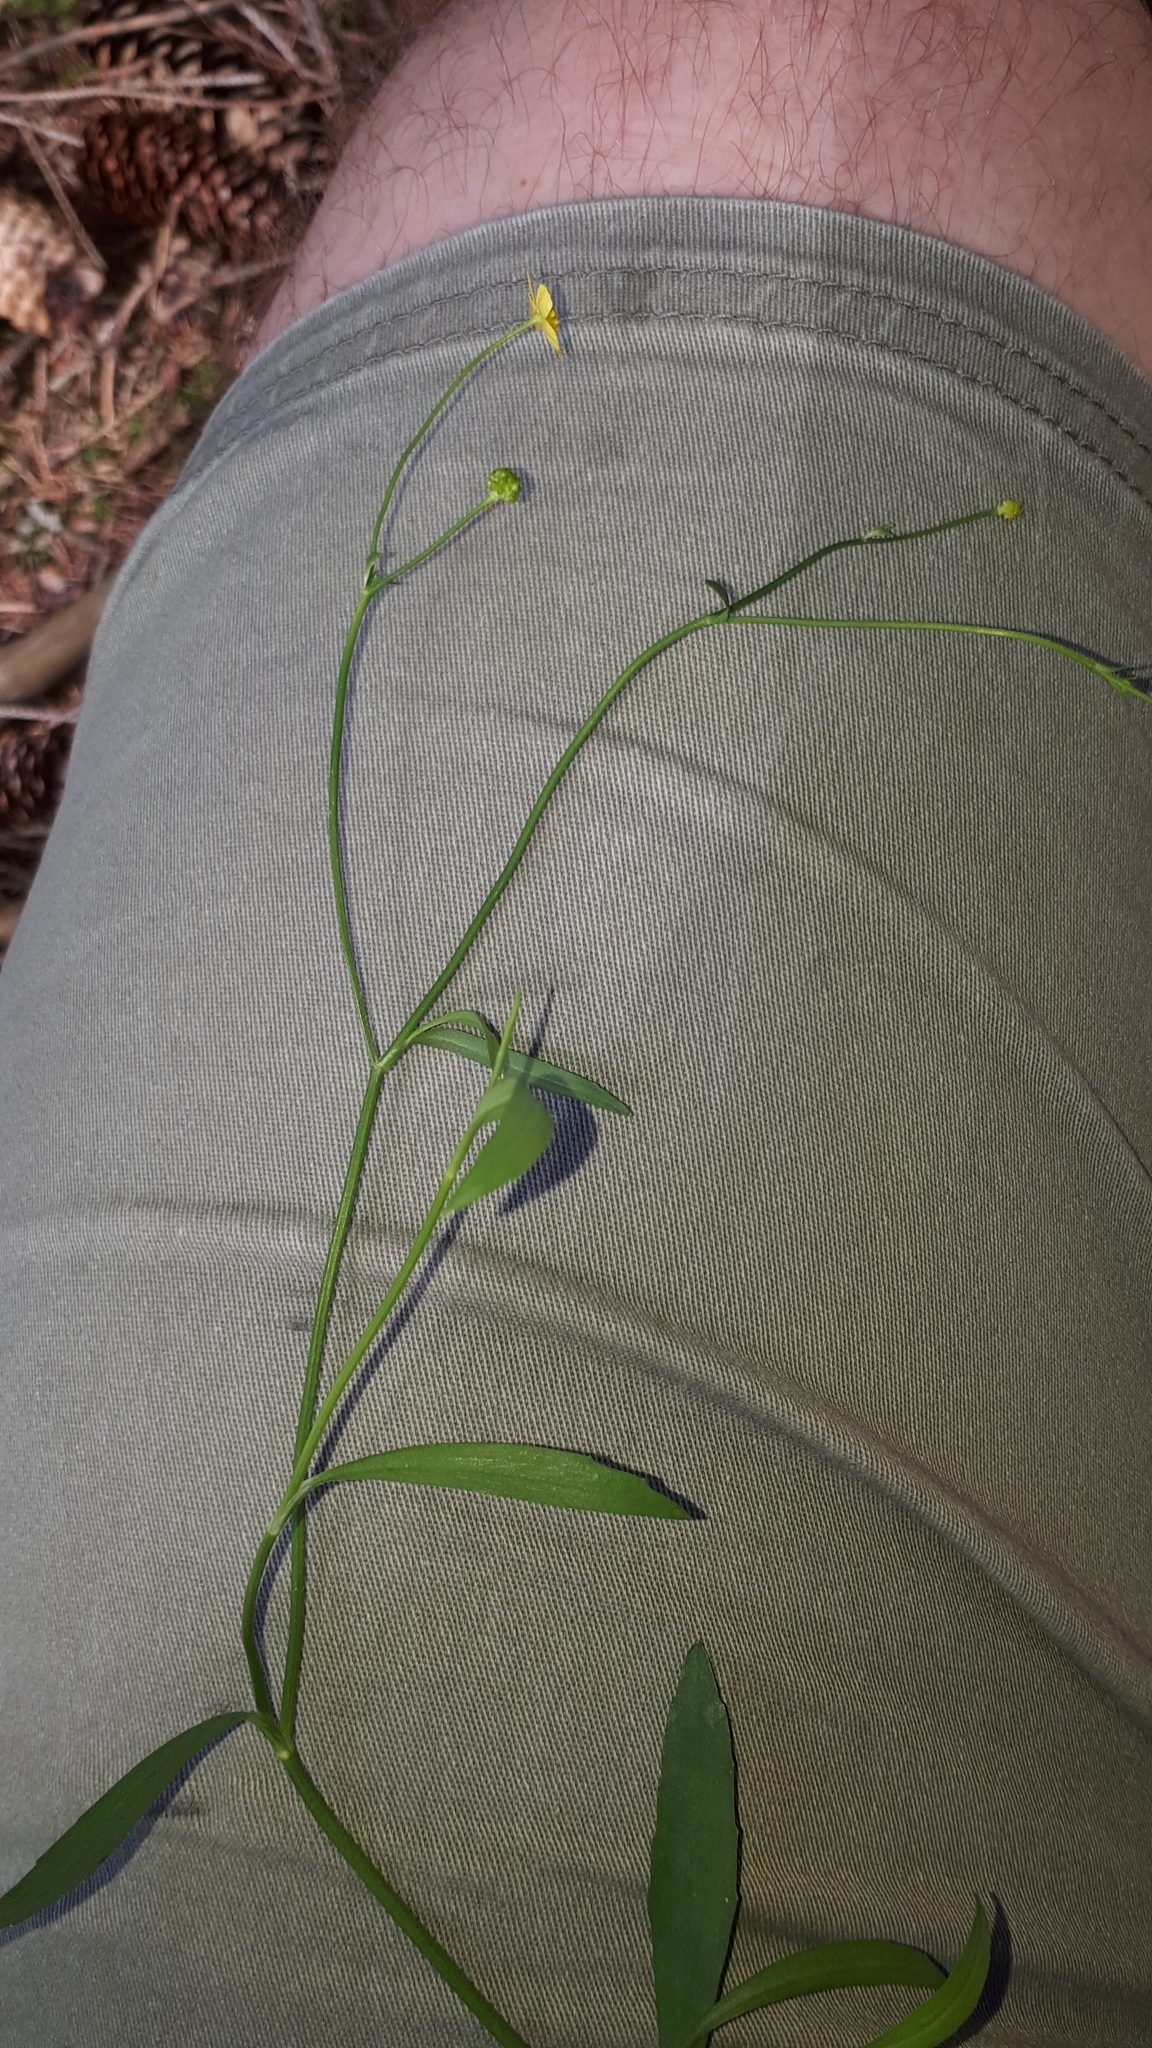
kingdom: Plantae
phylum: Tracheophyta
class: Magnoliopsida
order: Ranunculales
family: Ranunculaceae
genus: Ranunculus
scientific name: Ranunculus flammula
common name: Lesser spearwort
